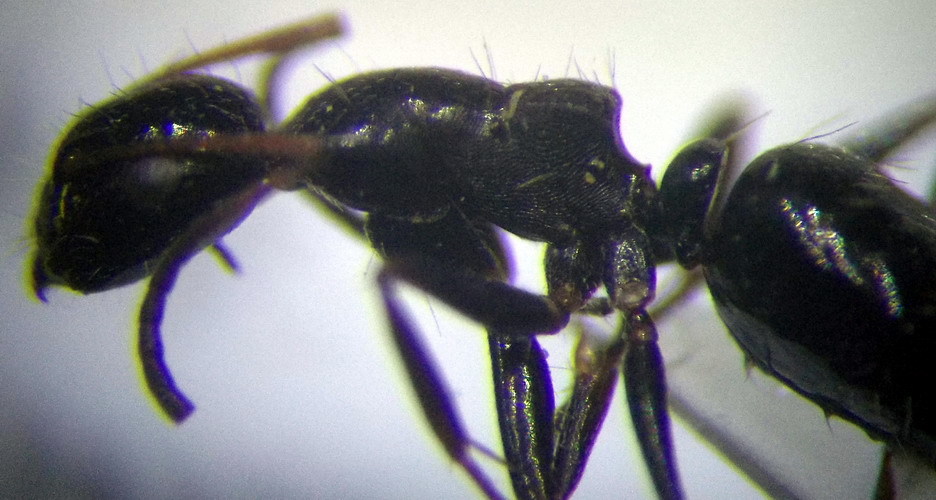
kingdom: Animalia
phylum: Arthropoda
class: Insecta
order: Hymenoptera
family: Formicidae
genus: Camponotus
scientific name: Camponotus piceus
